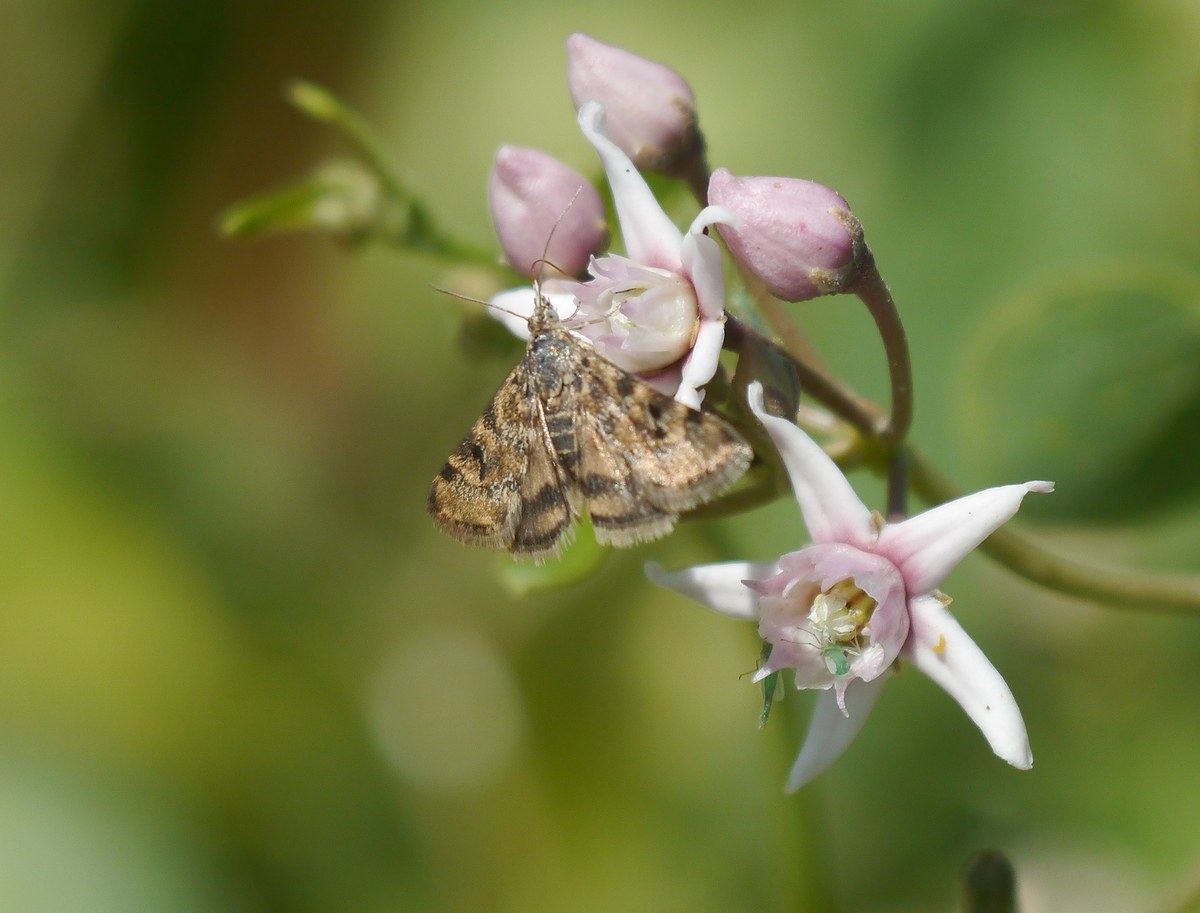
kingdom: Animalia
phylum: Arthropoda
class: Insecta
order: Lepidoptera
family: Crambidae
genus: Noctuelia
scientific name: Noctuelia Aporodes floralis
